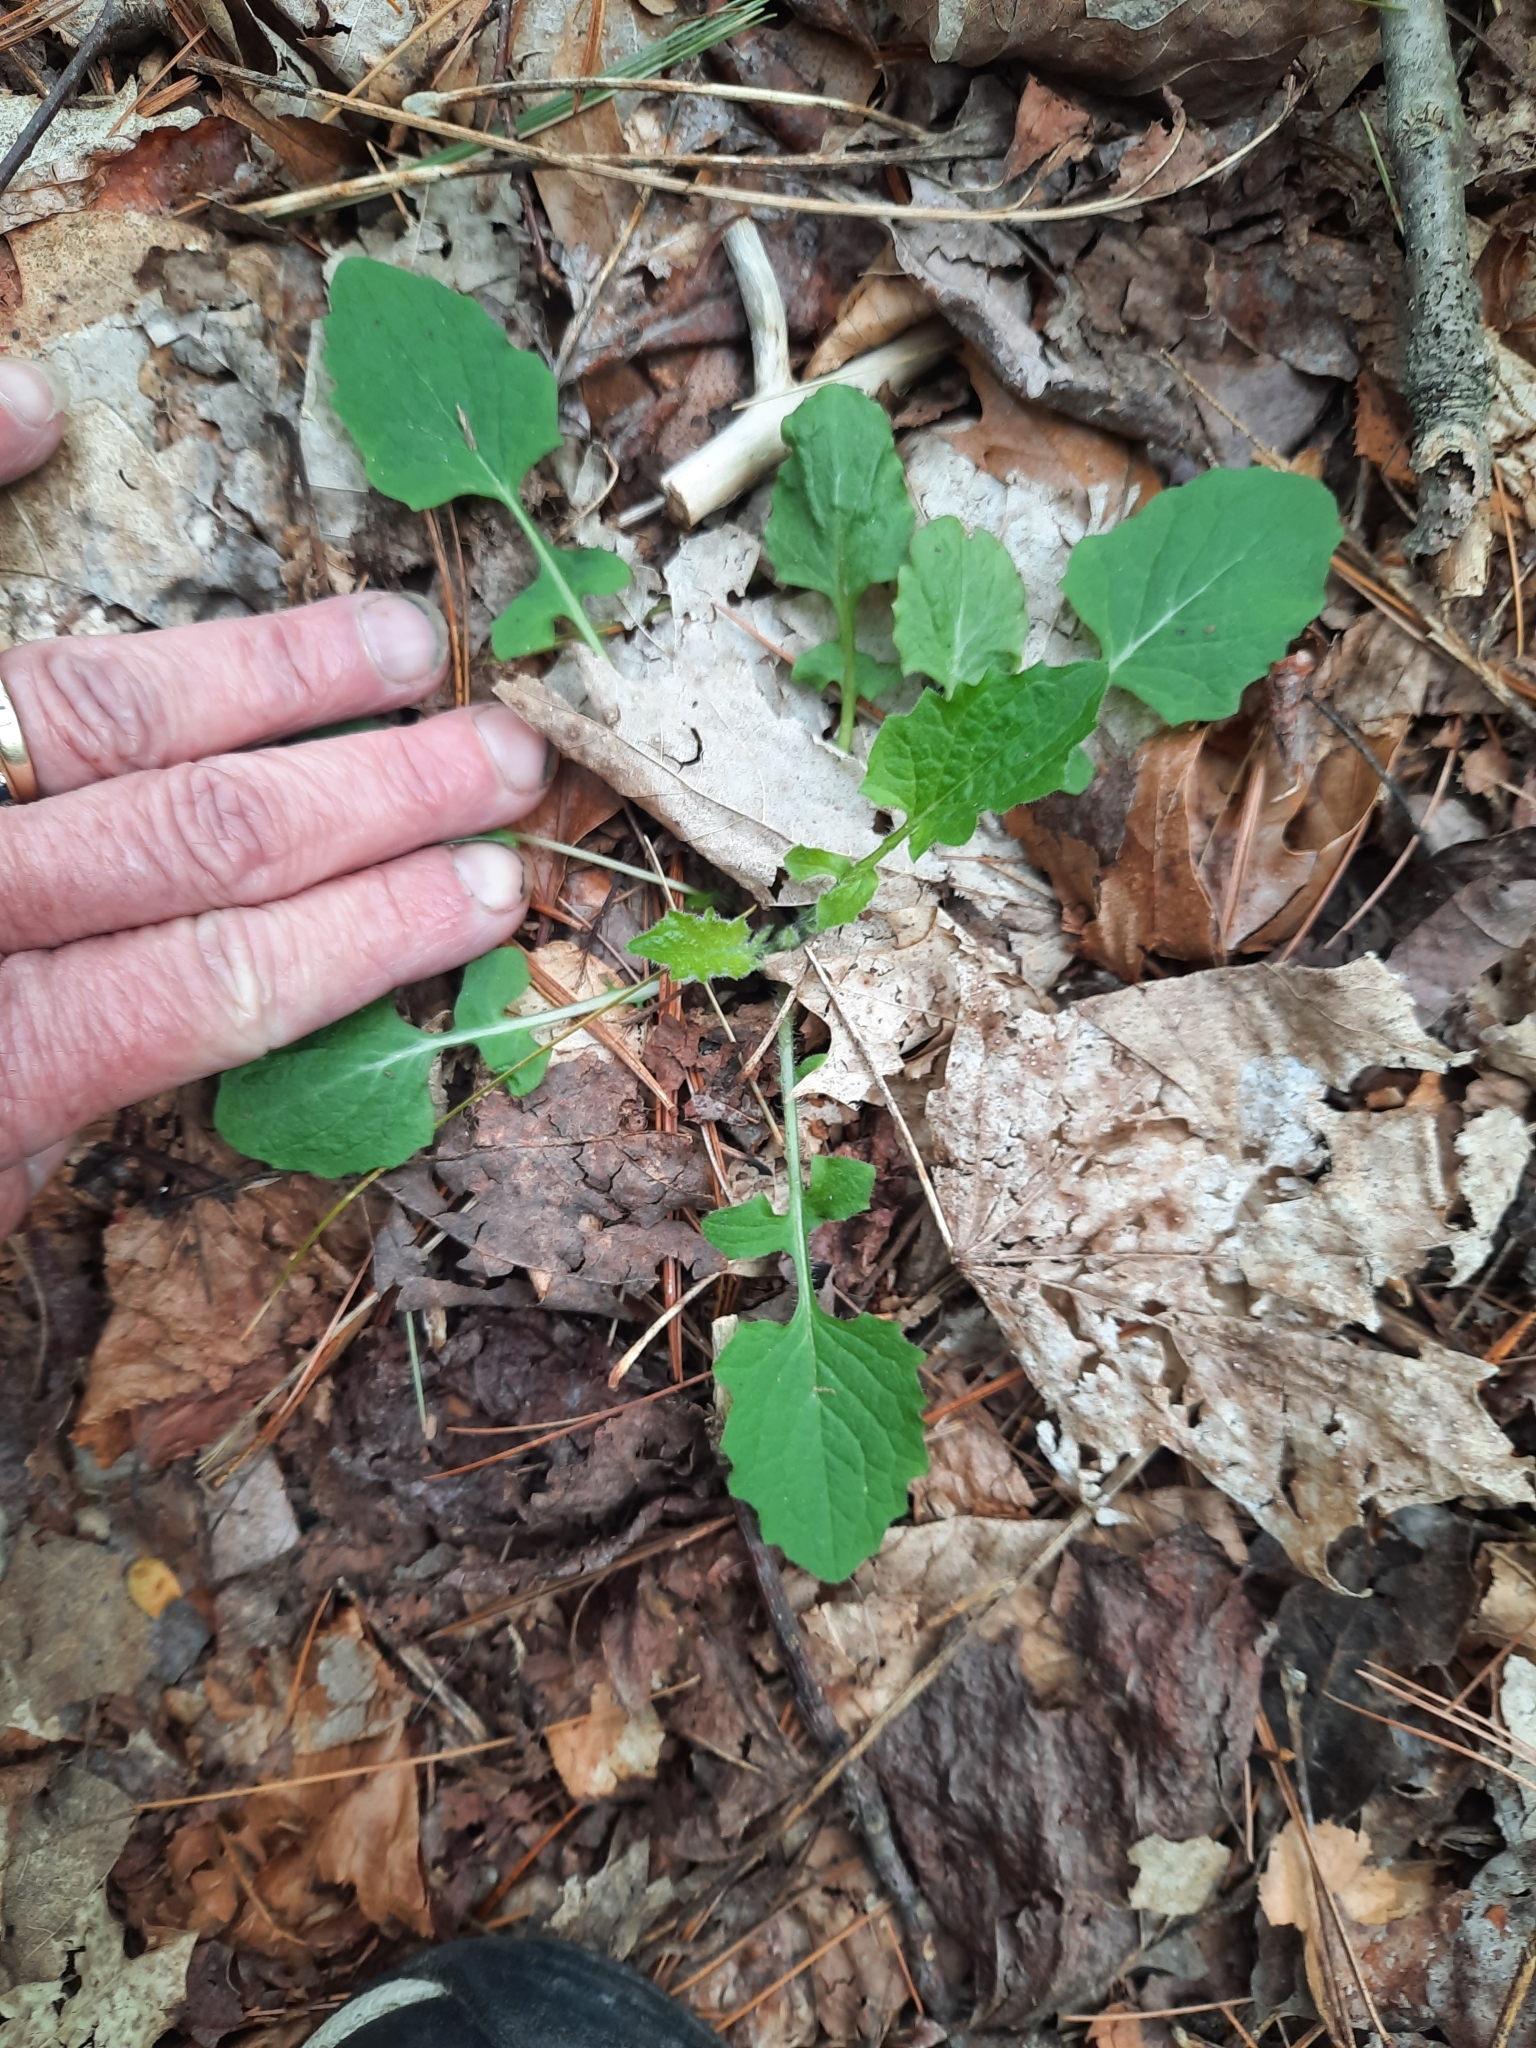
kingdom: Plantae
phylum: Tracheophyta
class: Magnoliopsida
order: Asterales
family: Asteraceae
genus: Lapsana
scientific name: Lapsana communis
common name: Nipplewort
